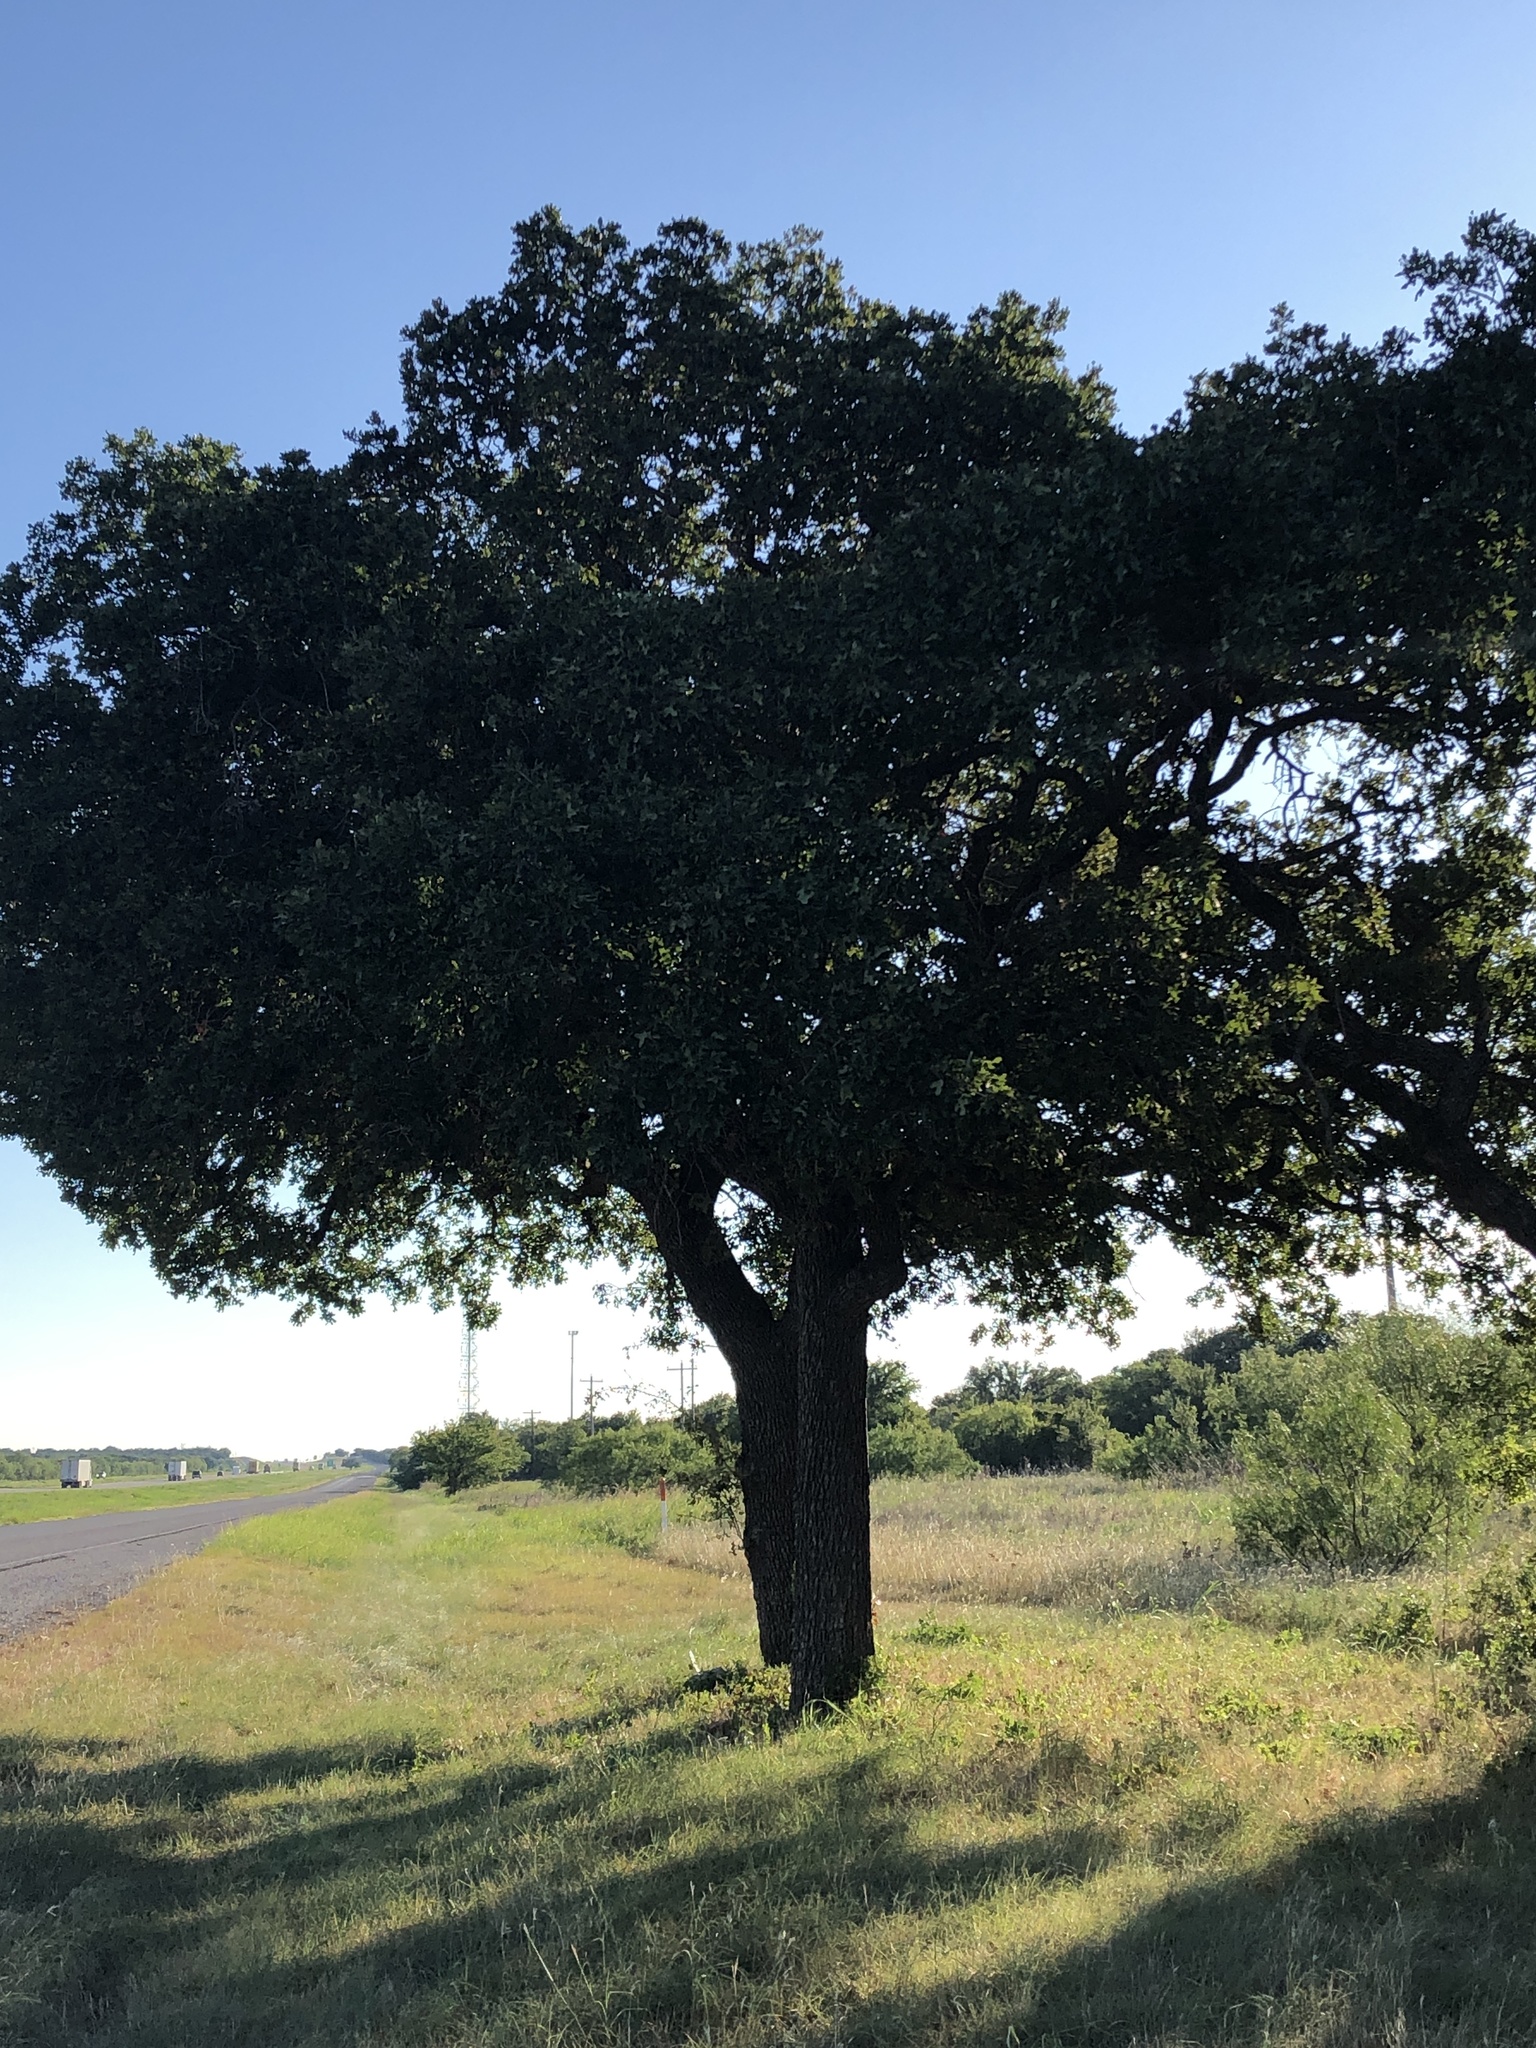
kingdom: Plantae
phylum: Tracheophyta
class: Magnoliopsida
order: Fagales
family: Fagaceae
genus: Quercus
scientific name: Quercus stellata
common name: Post oak
